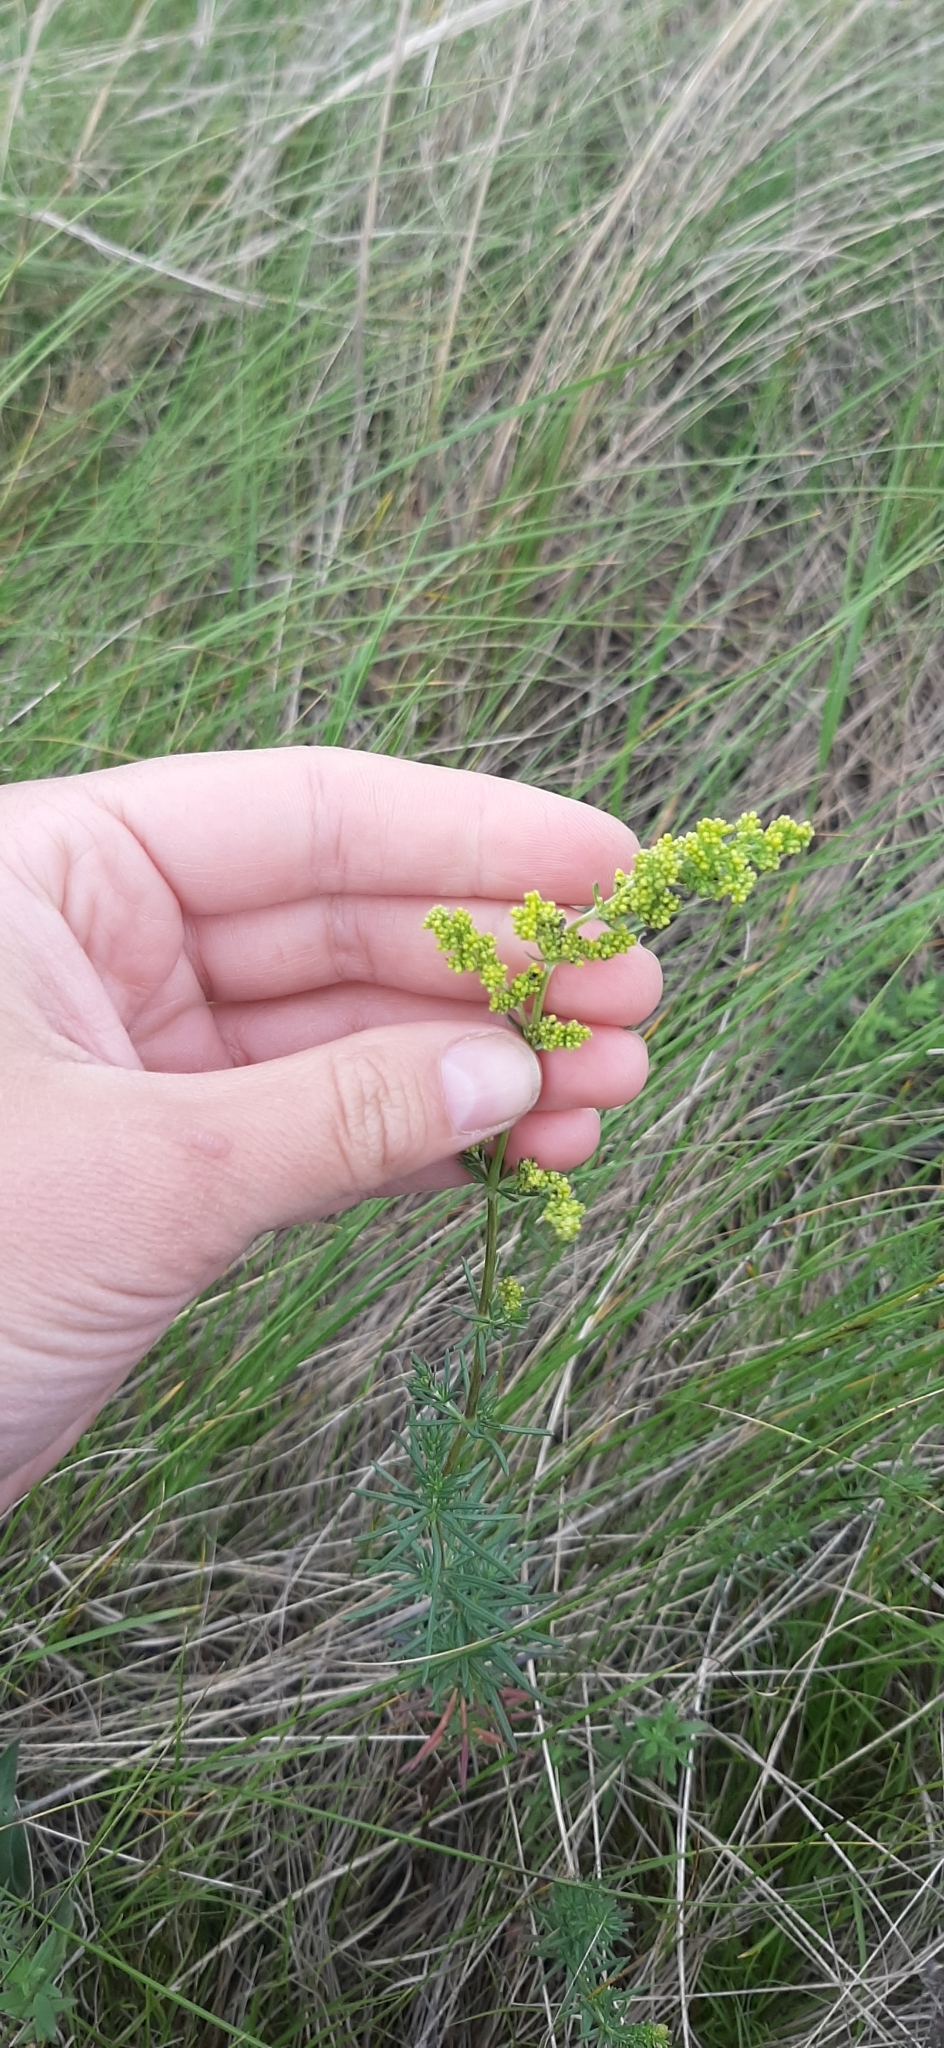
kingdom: Plantae
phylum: Tracheophyta
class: Magnoliopsida
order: Gentianales
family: Rubiaceae
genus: Galium
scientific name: Galium verum
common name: Lady's bedstraw
